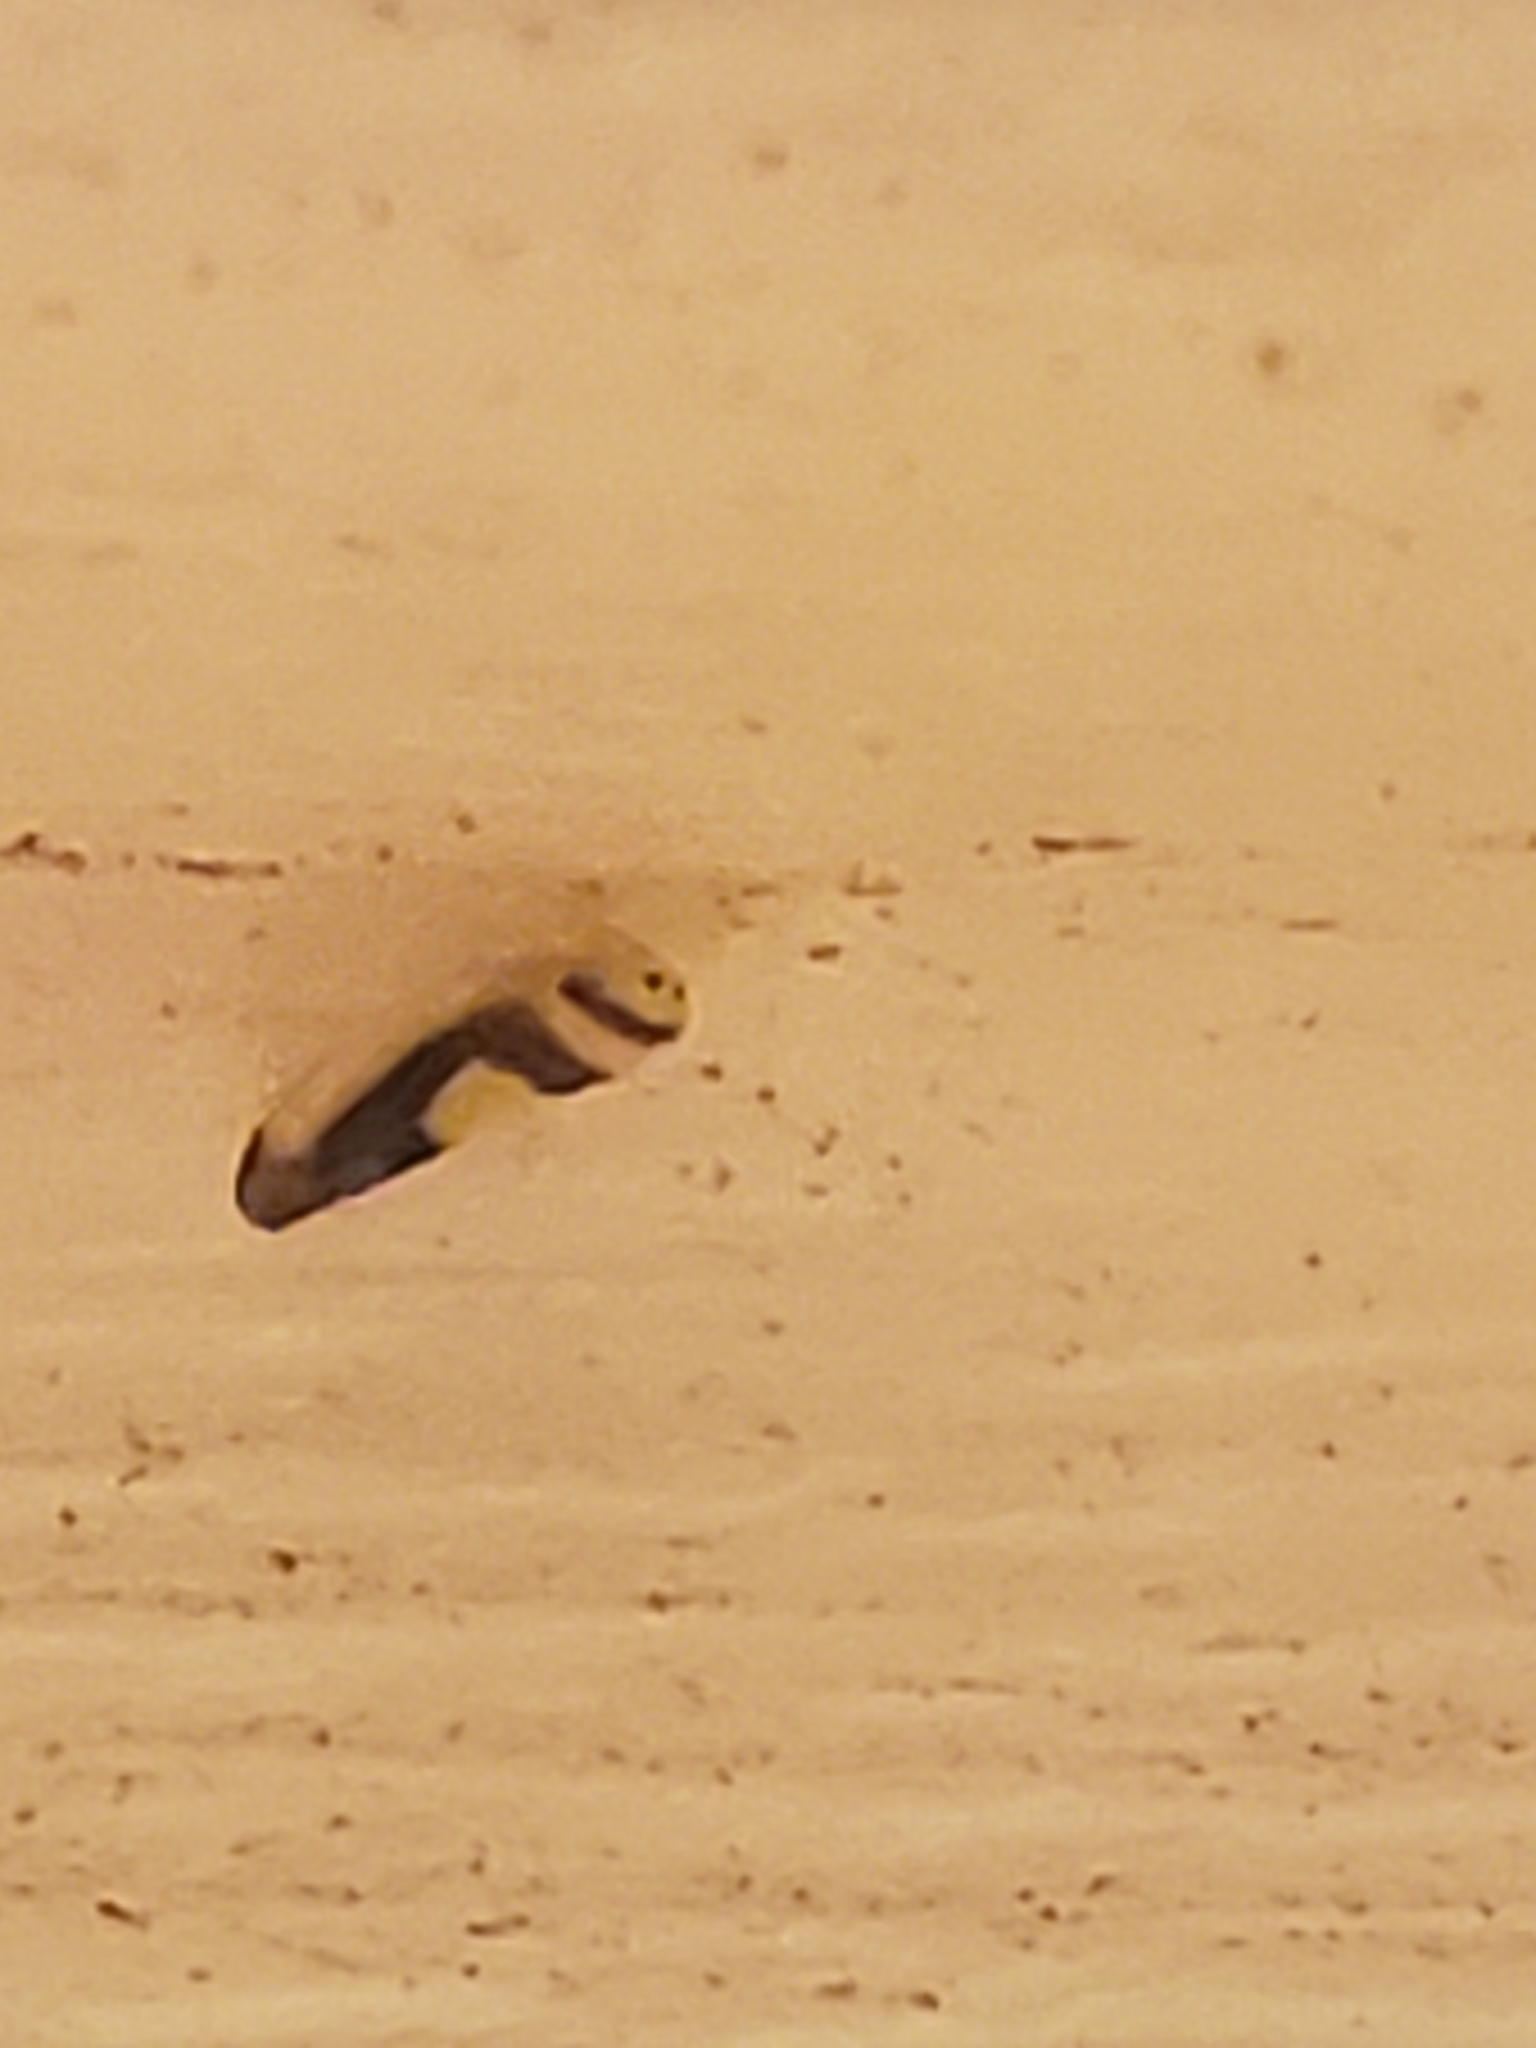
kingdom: Animalia
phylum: Arthropoda
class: Insecta
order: Hemiptera
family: Cicadellidae
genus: Colladonus
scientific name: Colladonus clitellarius
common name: The saddleback leafhopper
